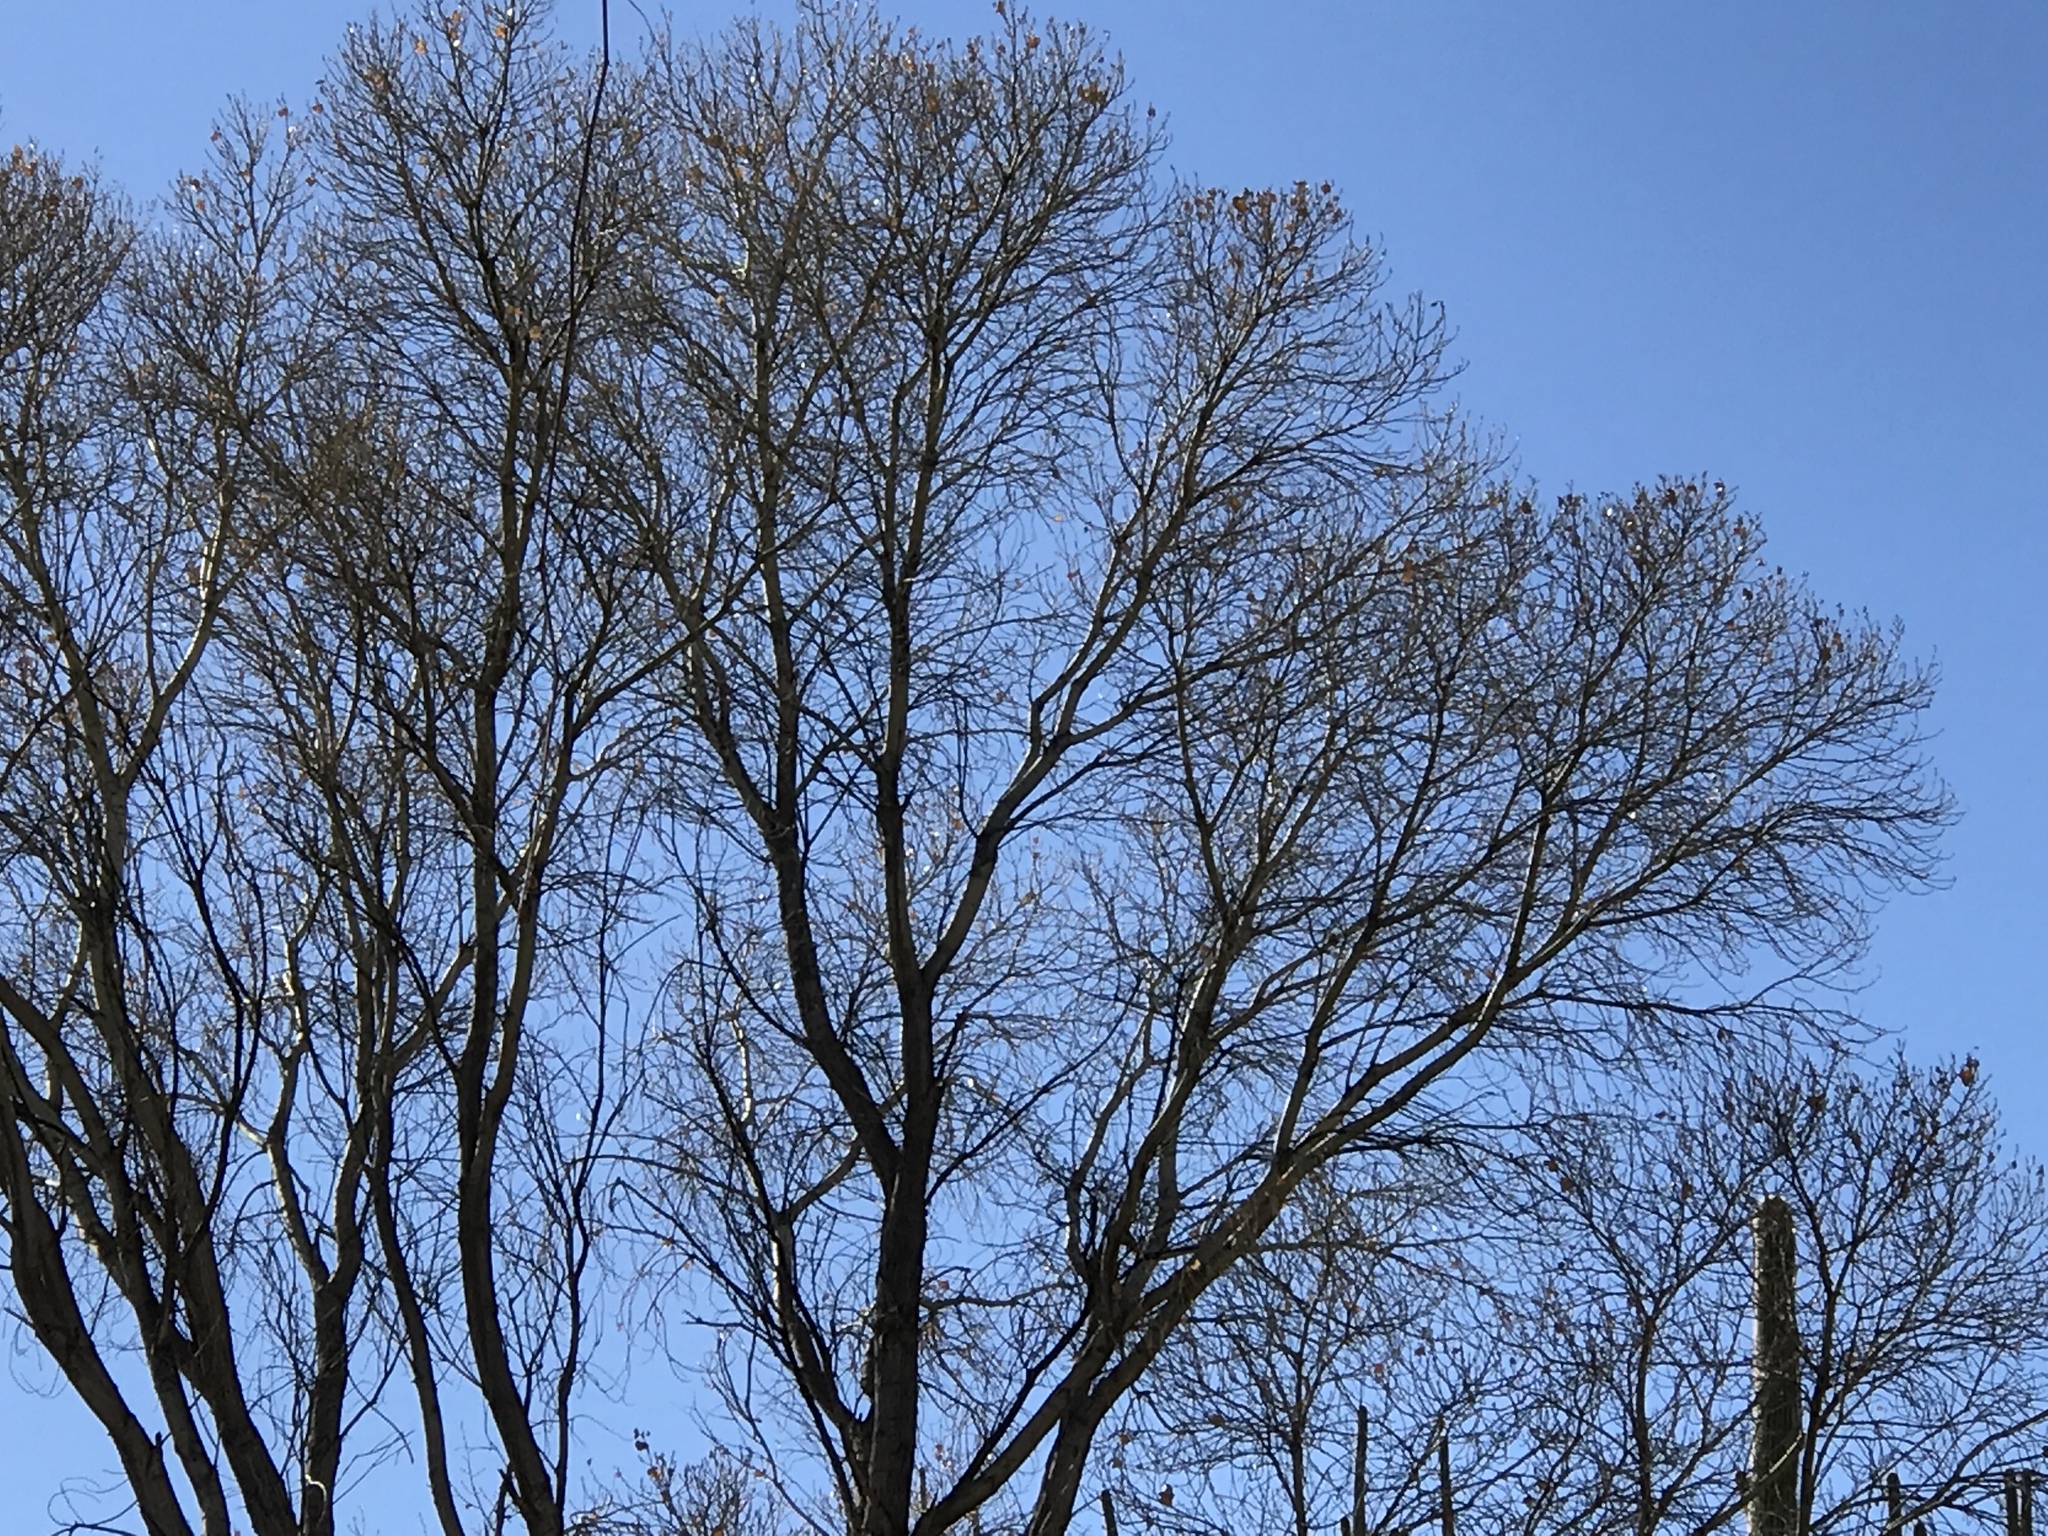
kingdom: Plantae
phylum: Tracheophyta
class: Magnoliopsida
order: Malpighiales
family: Salicaceae
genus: Populus
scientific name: Populus fremontii
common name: Fremont's cottonwood
